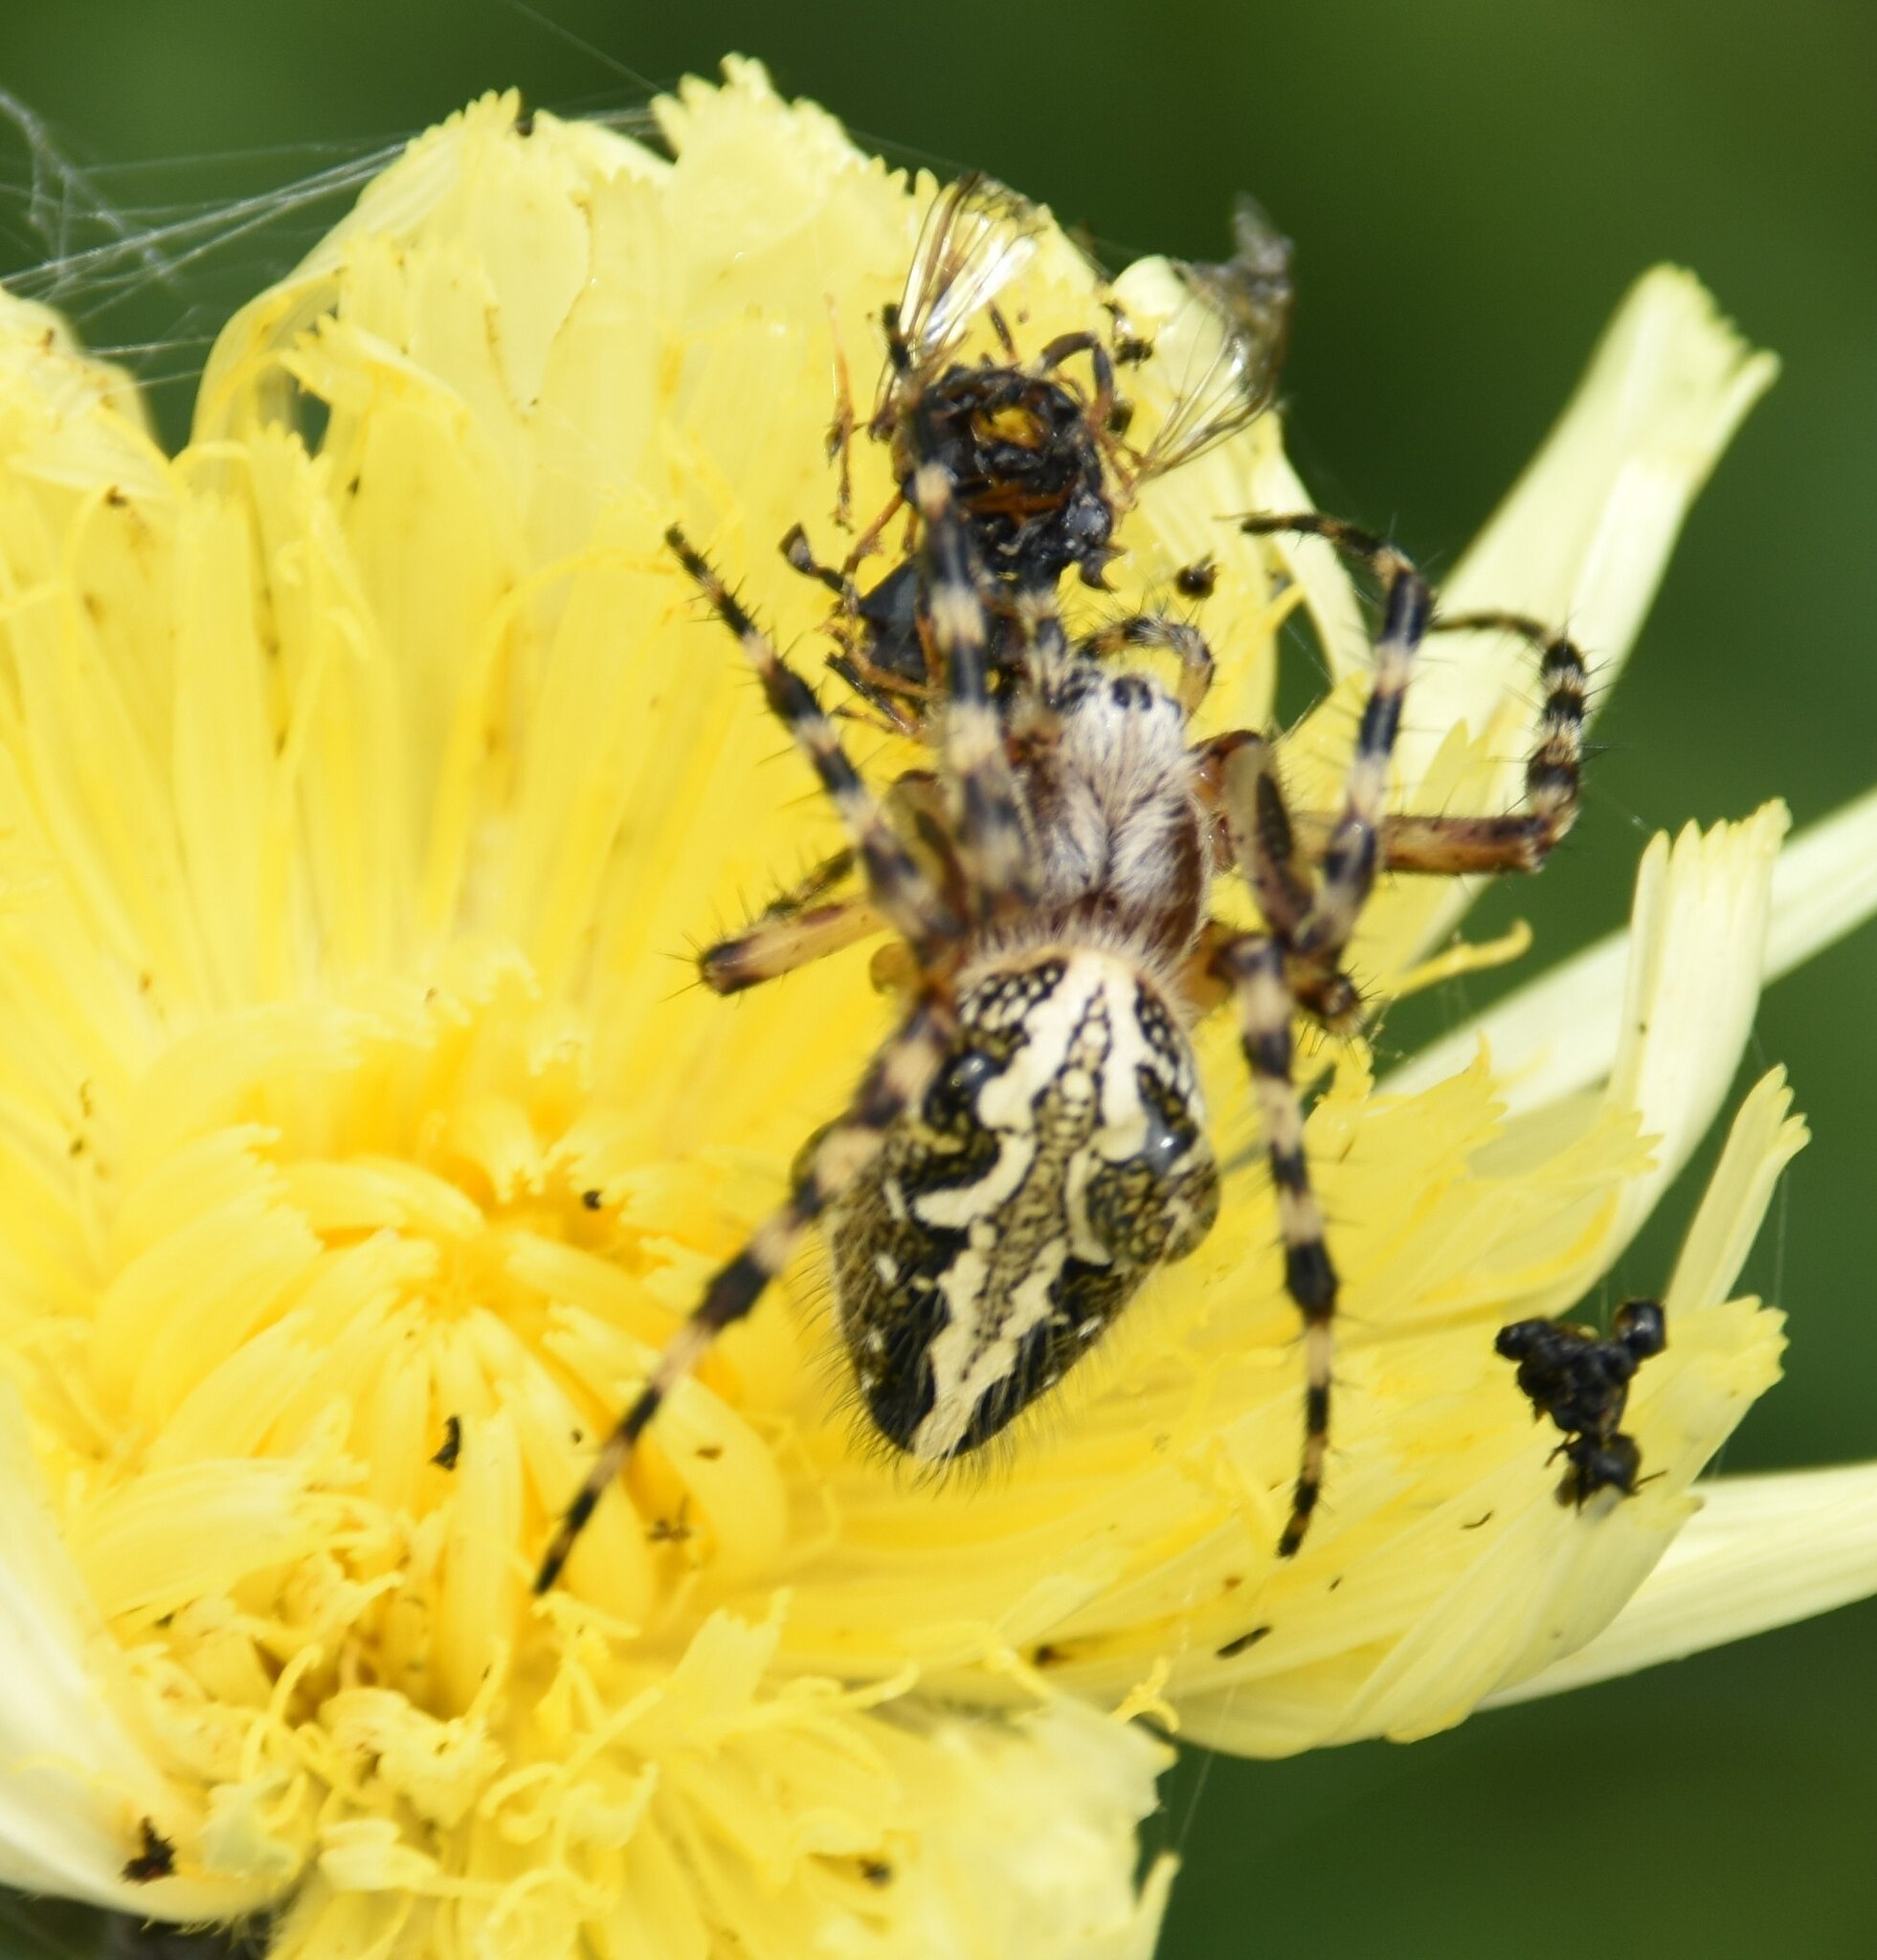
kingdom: Animalia
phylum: Arthropoda
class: Arachnida
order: Araneae
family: Araneidae
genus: Aculepeira
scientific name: Aculepeira ceropegia
